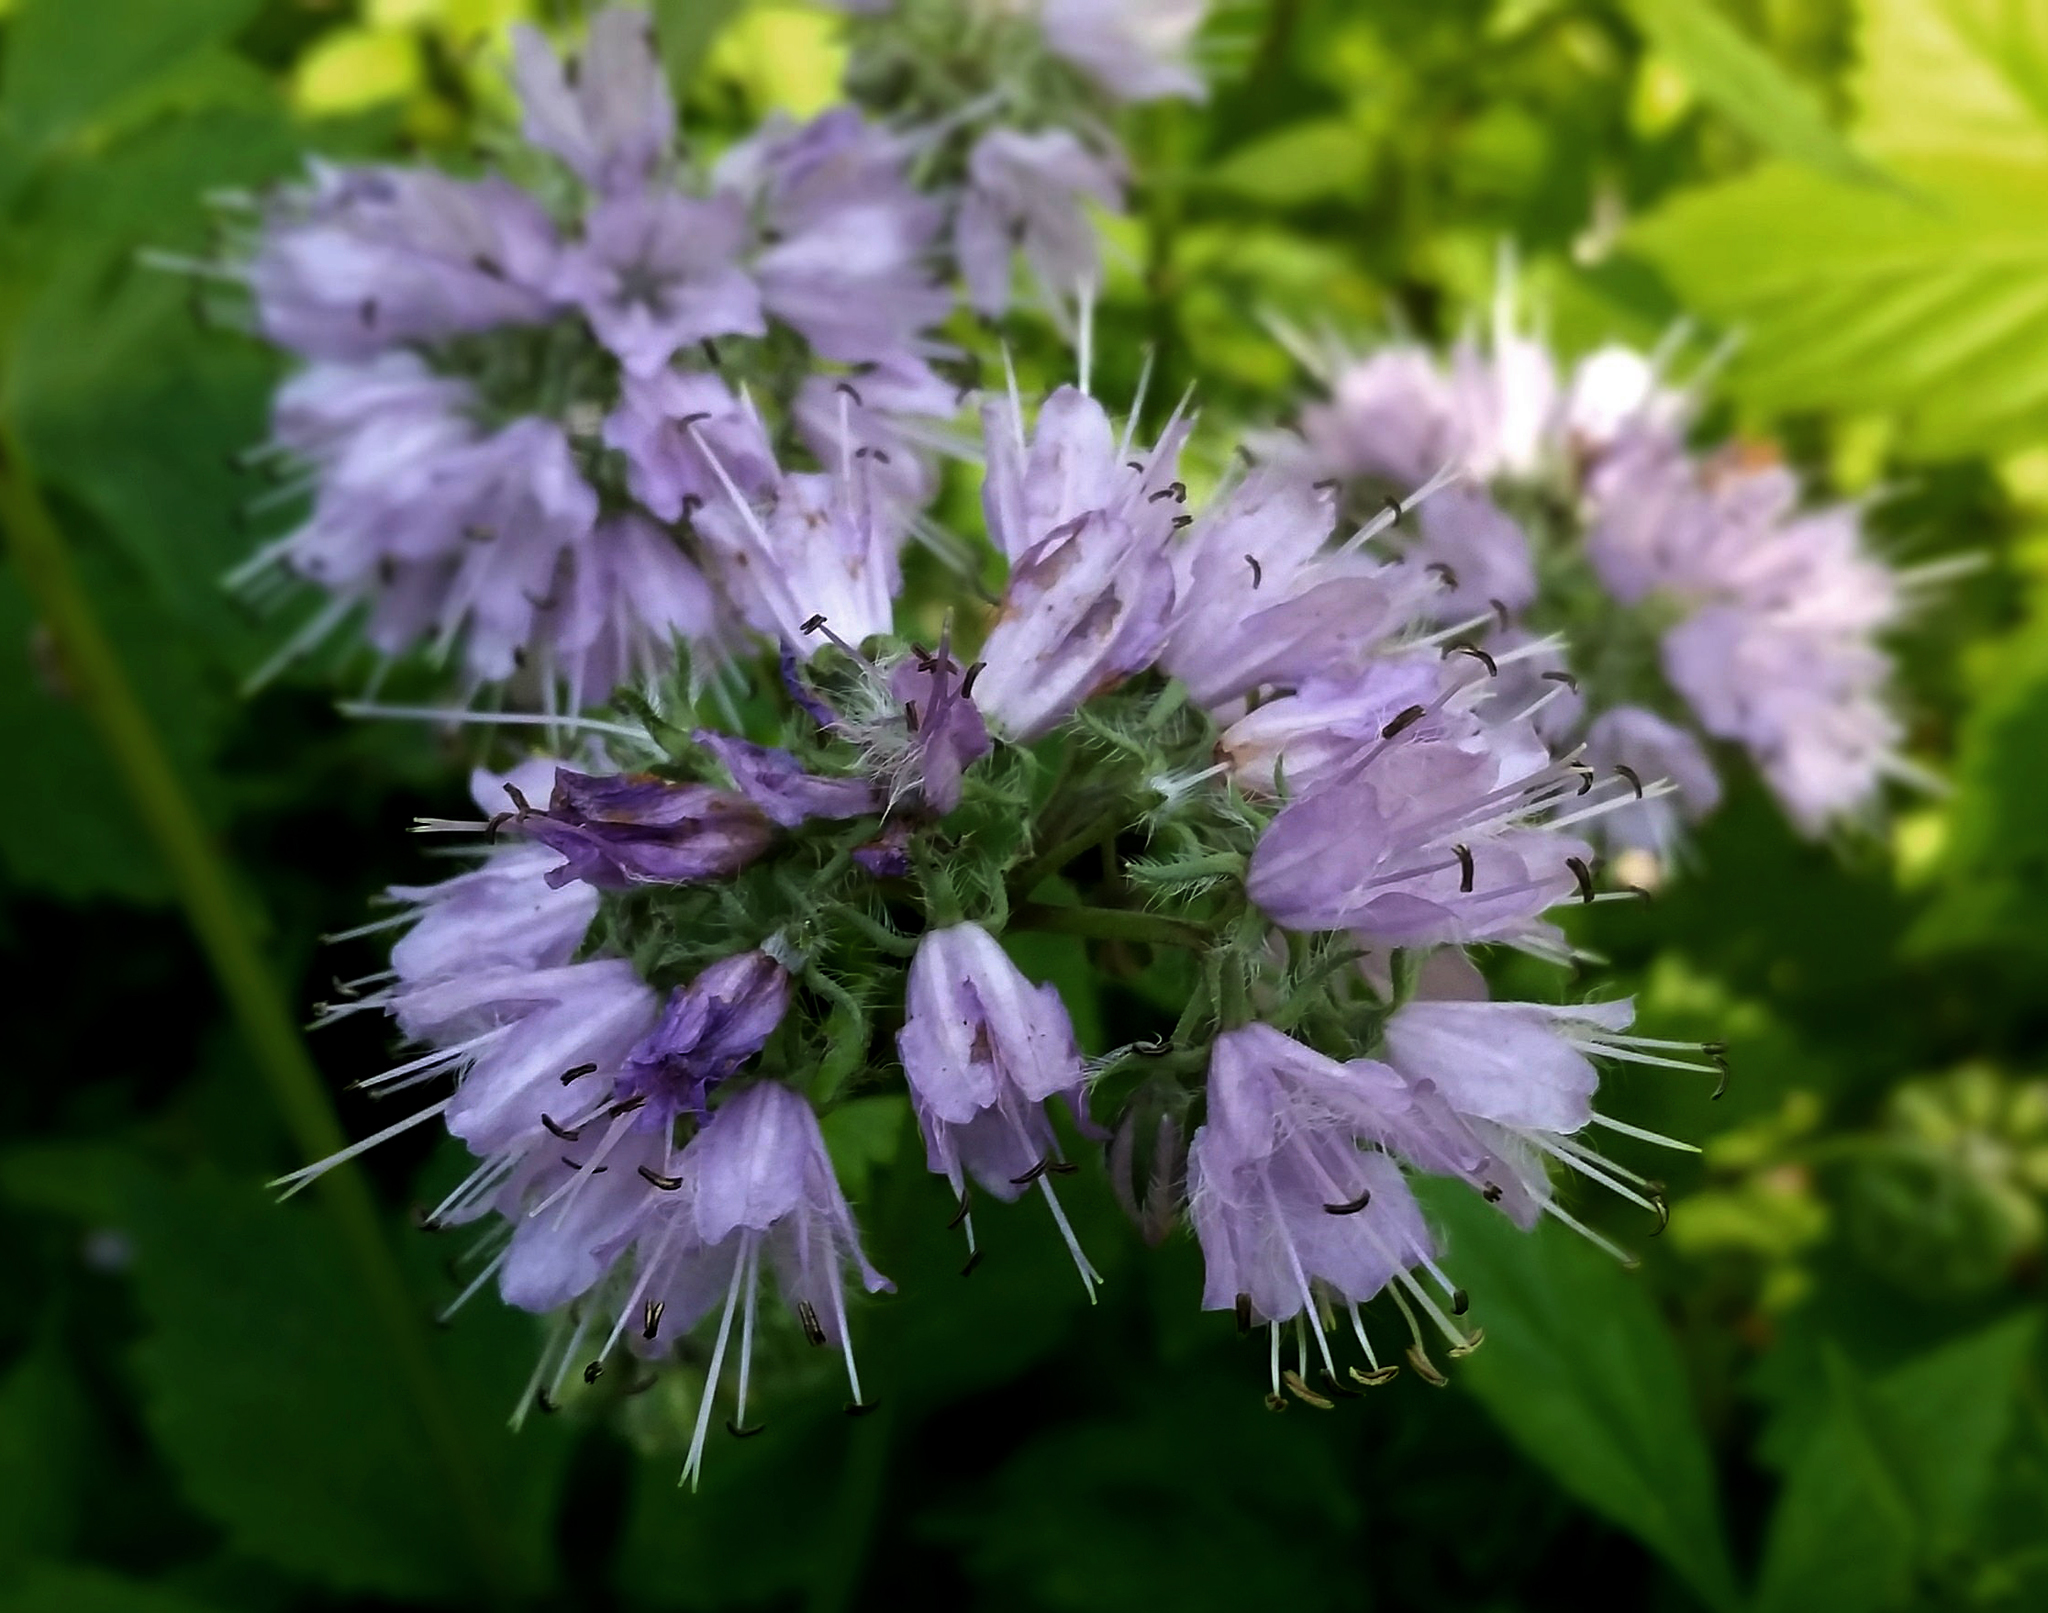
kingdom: Plantae
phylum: Tracheophyta
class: Magnoliopsida
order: Boraginales
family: Hydrophyllaceae
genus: Hydrophyllum
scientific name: Hydrophyllum virginianum
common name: Virginia waterleaf
